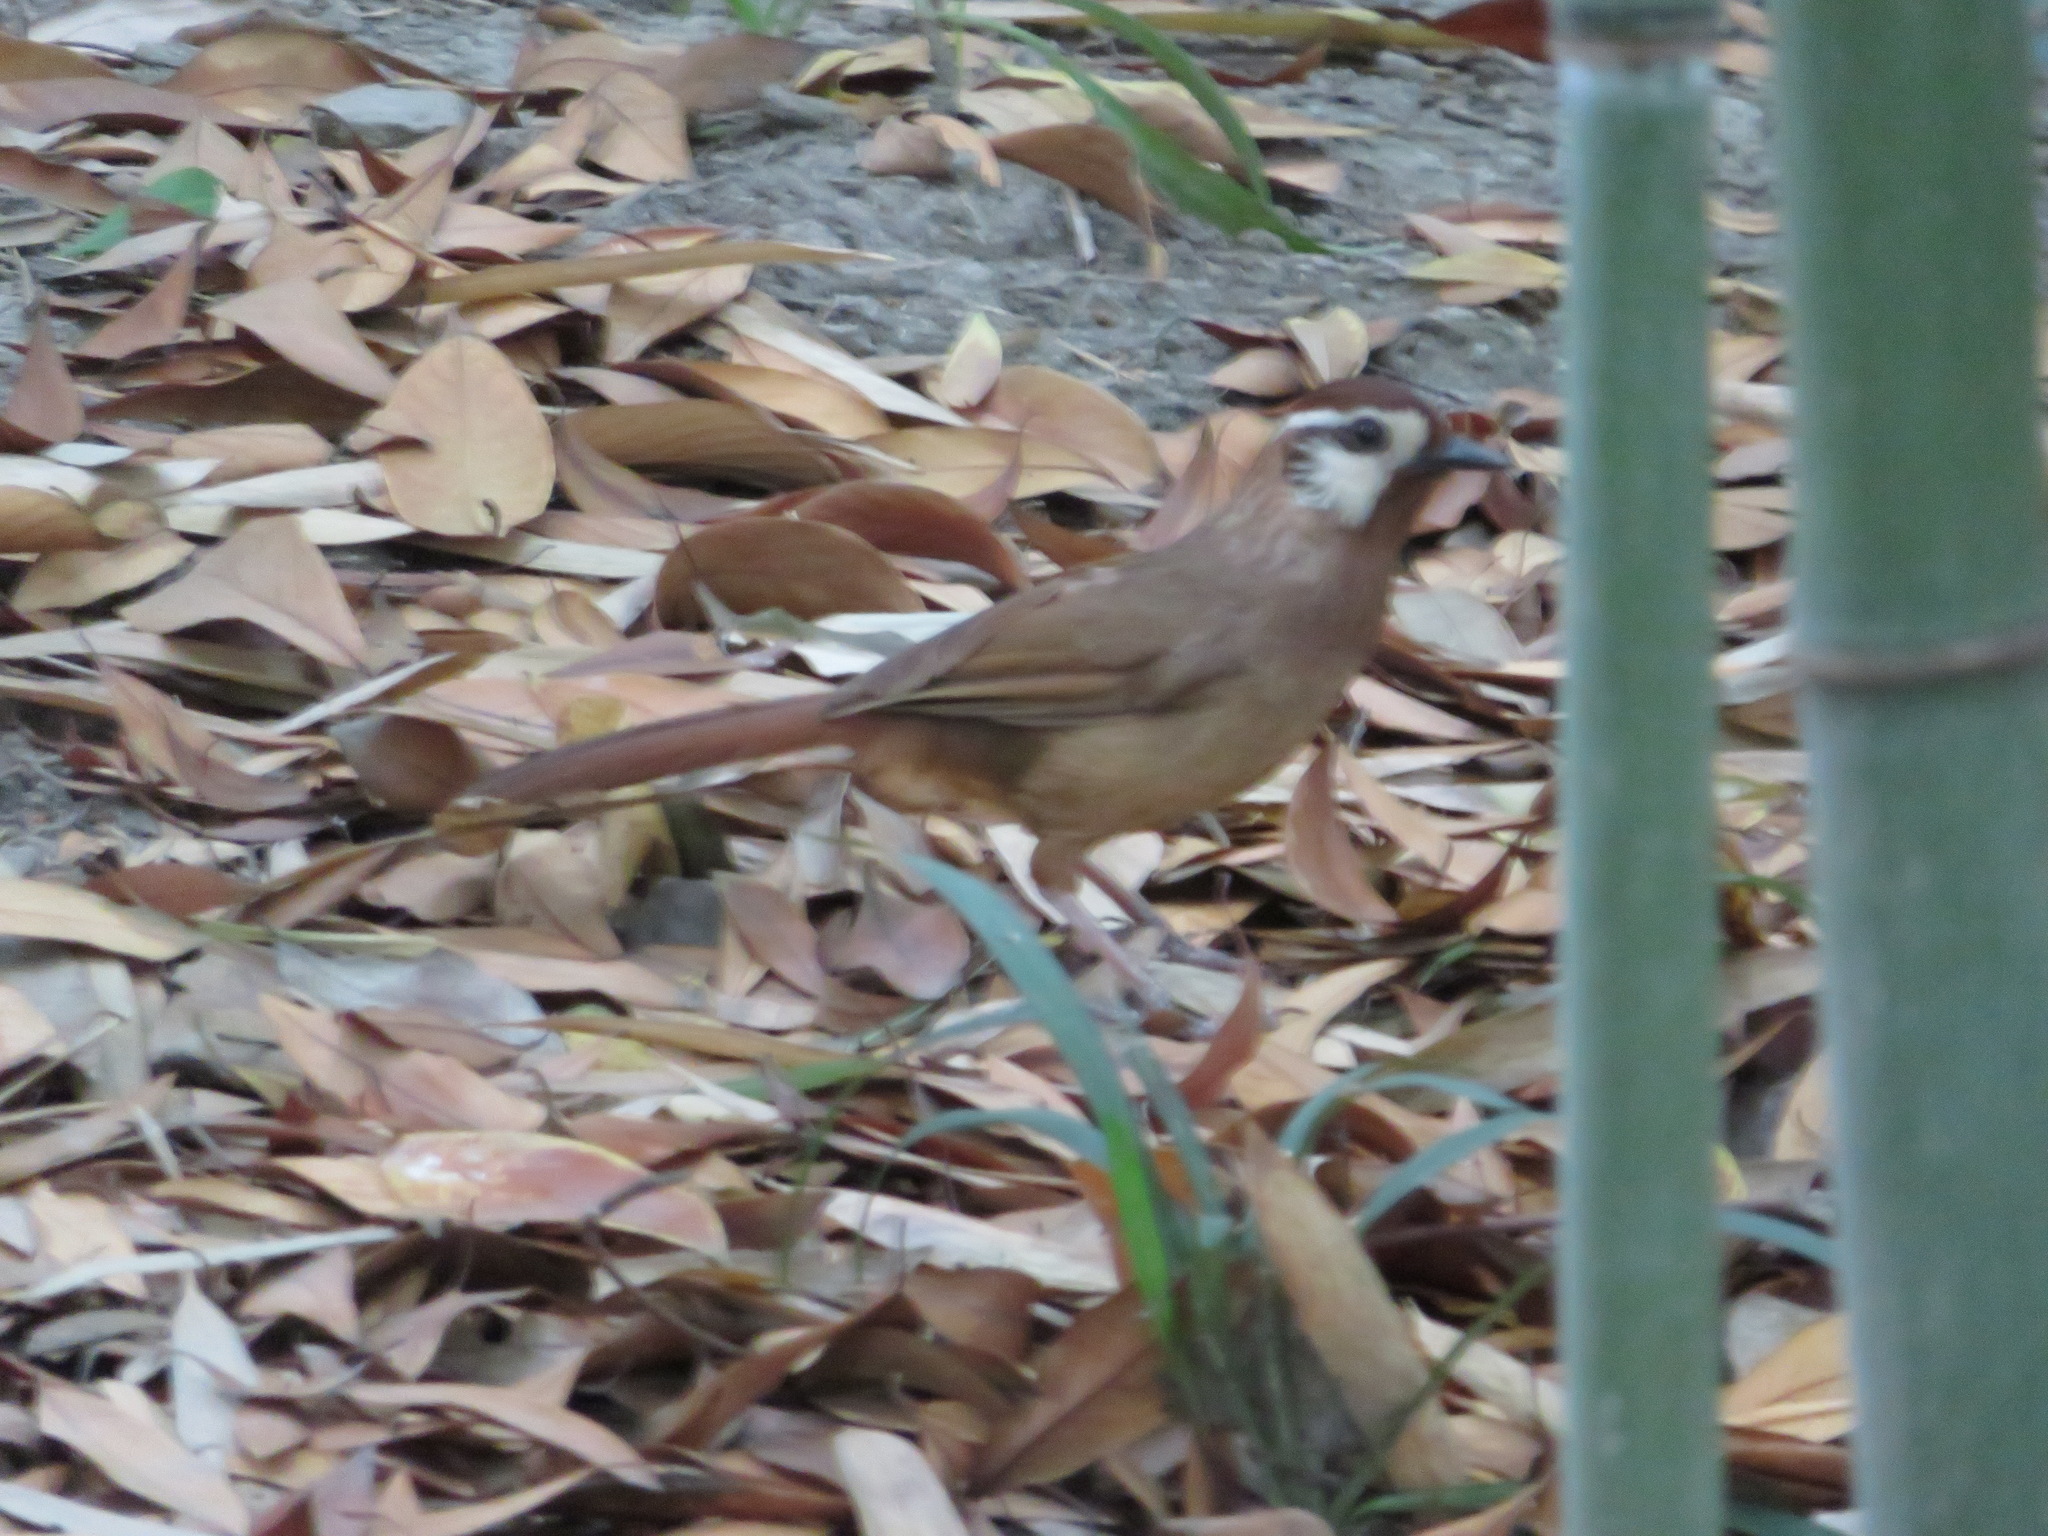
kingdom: Animalia
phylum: Chordata
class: Aves
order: Passeriformes
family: Leiothrichidae
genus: Pterorhinus
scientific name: Pterorhinus sannio
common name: White-browed laughingthrush
